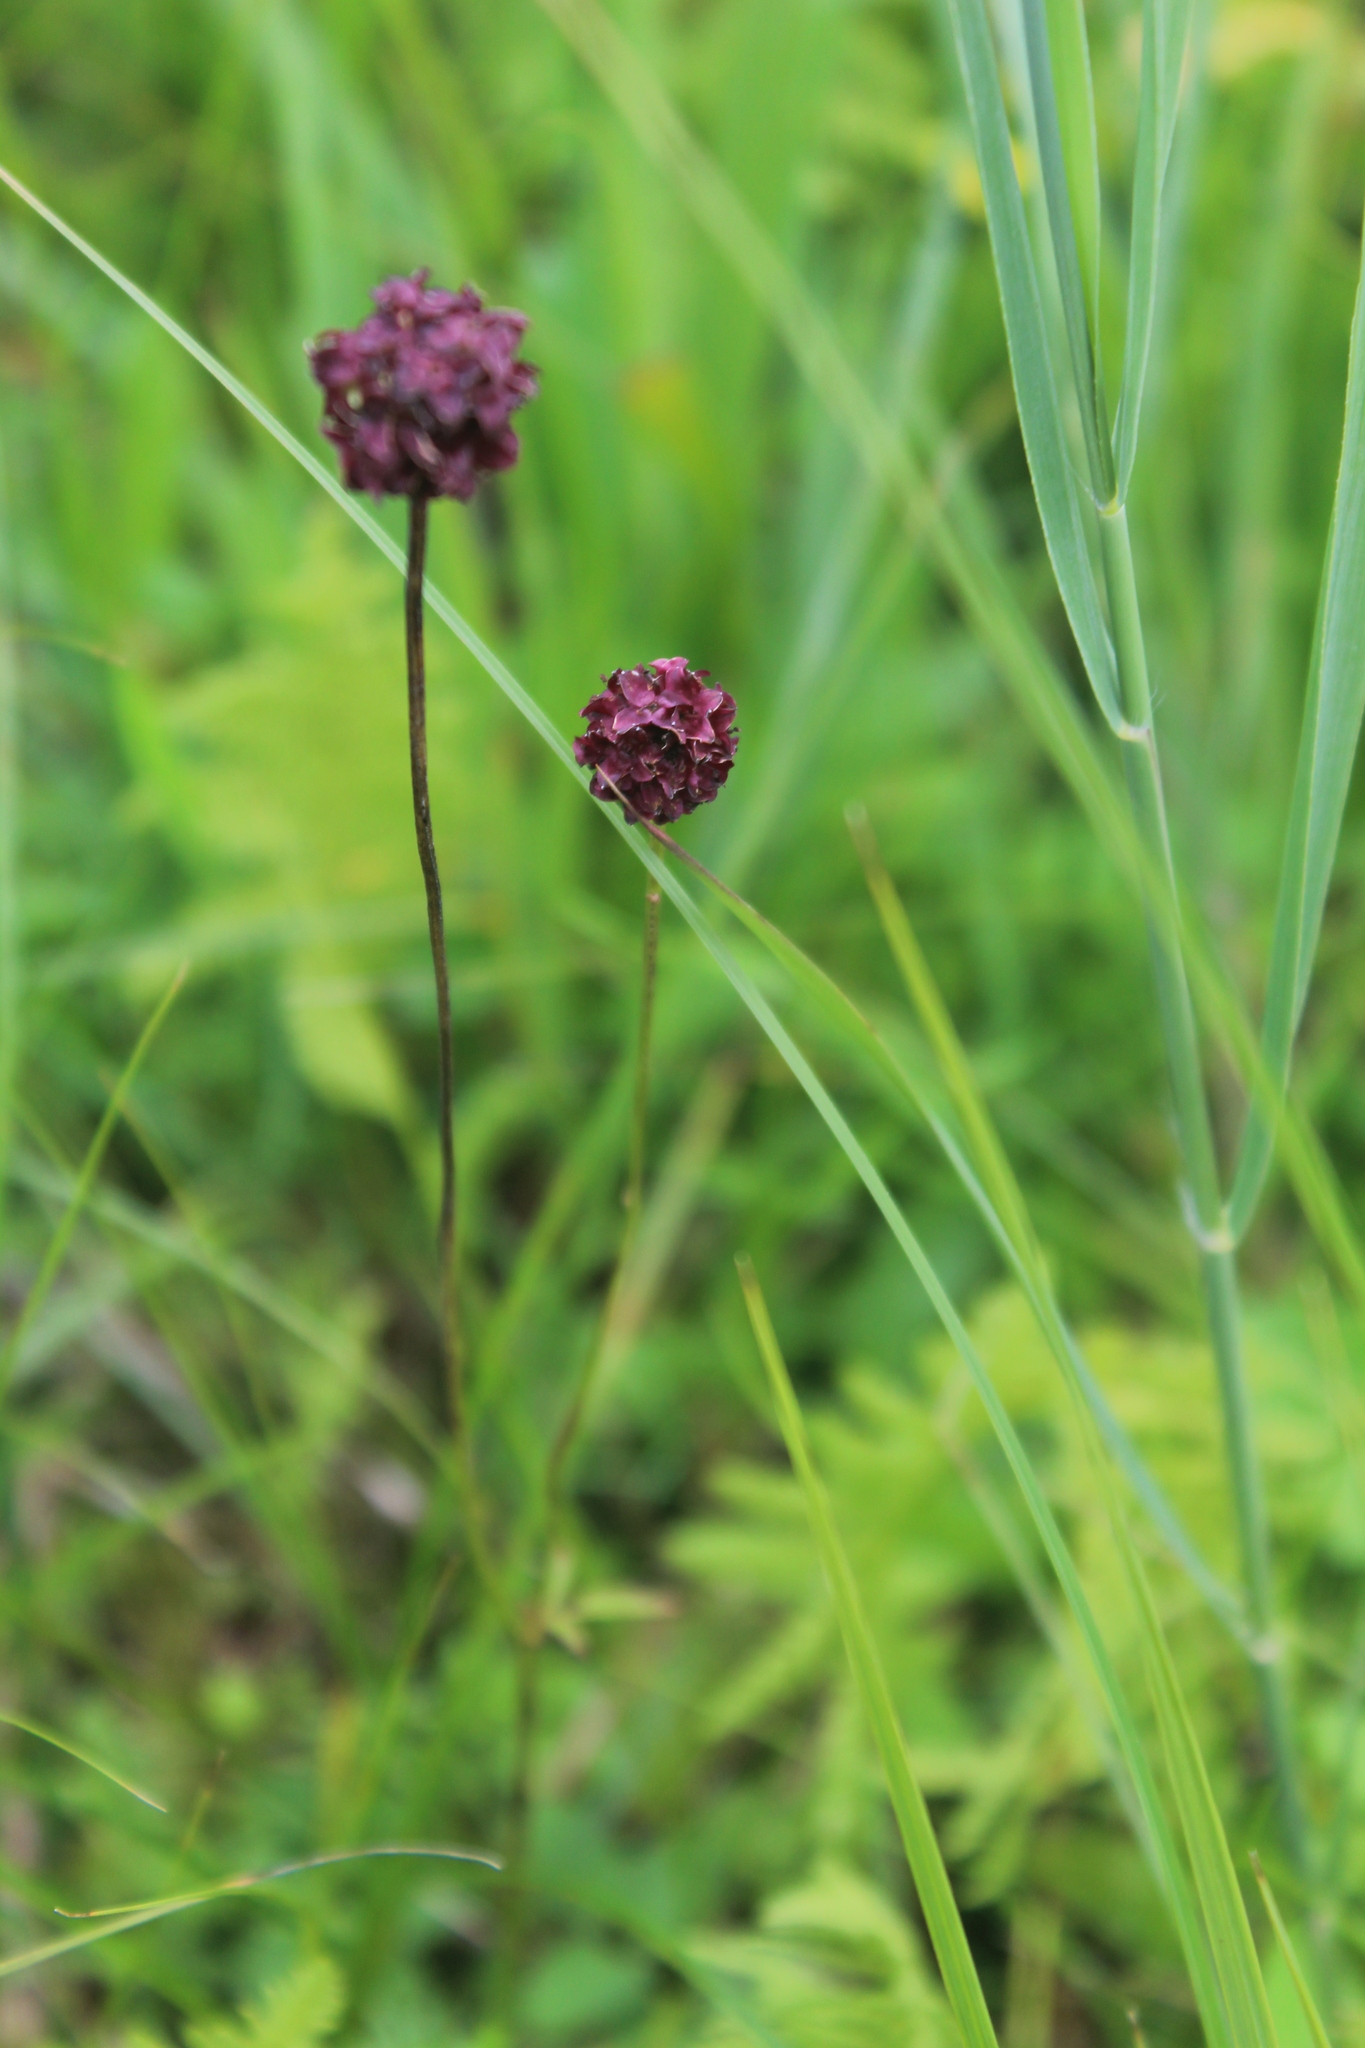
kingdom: Plantae
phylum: Tracheophyta
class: Magnoliopsida
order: Rosales
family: Rosaceae
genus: Sanguisorba
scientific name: Sanguisorba officinalis
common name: Great burnet
